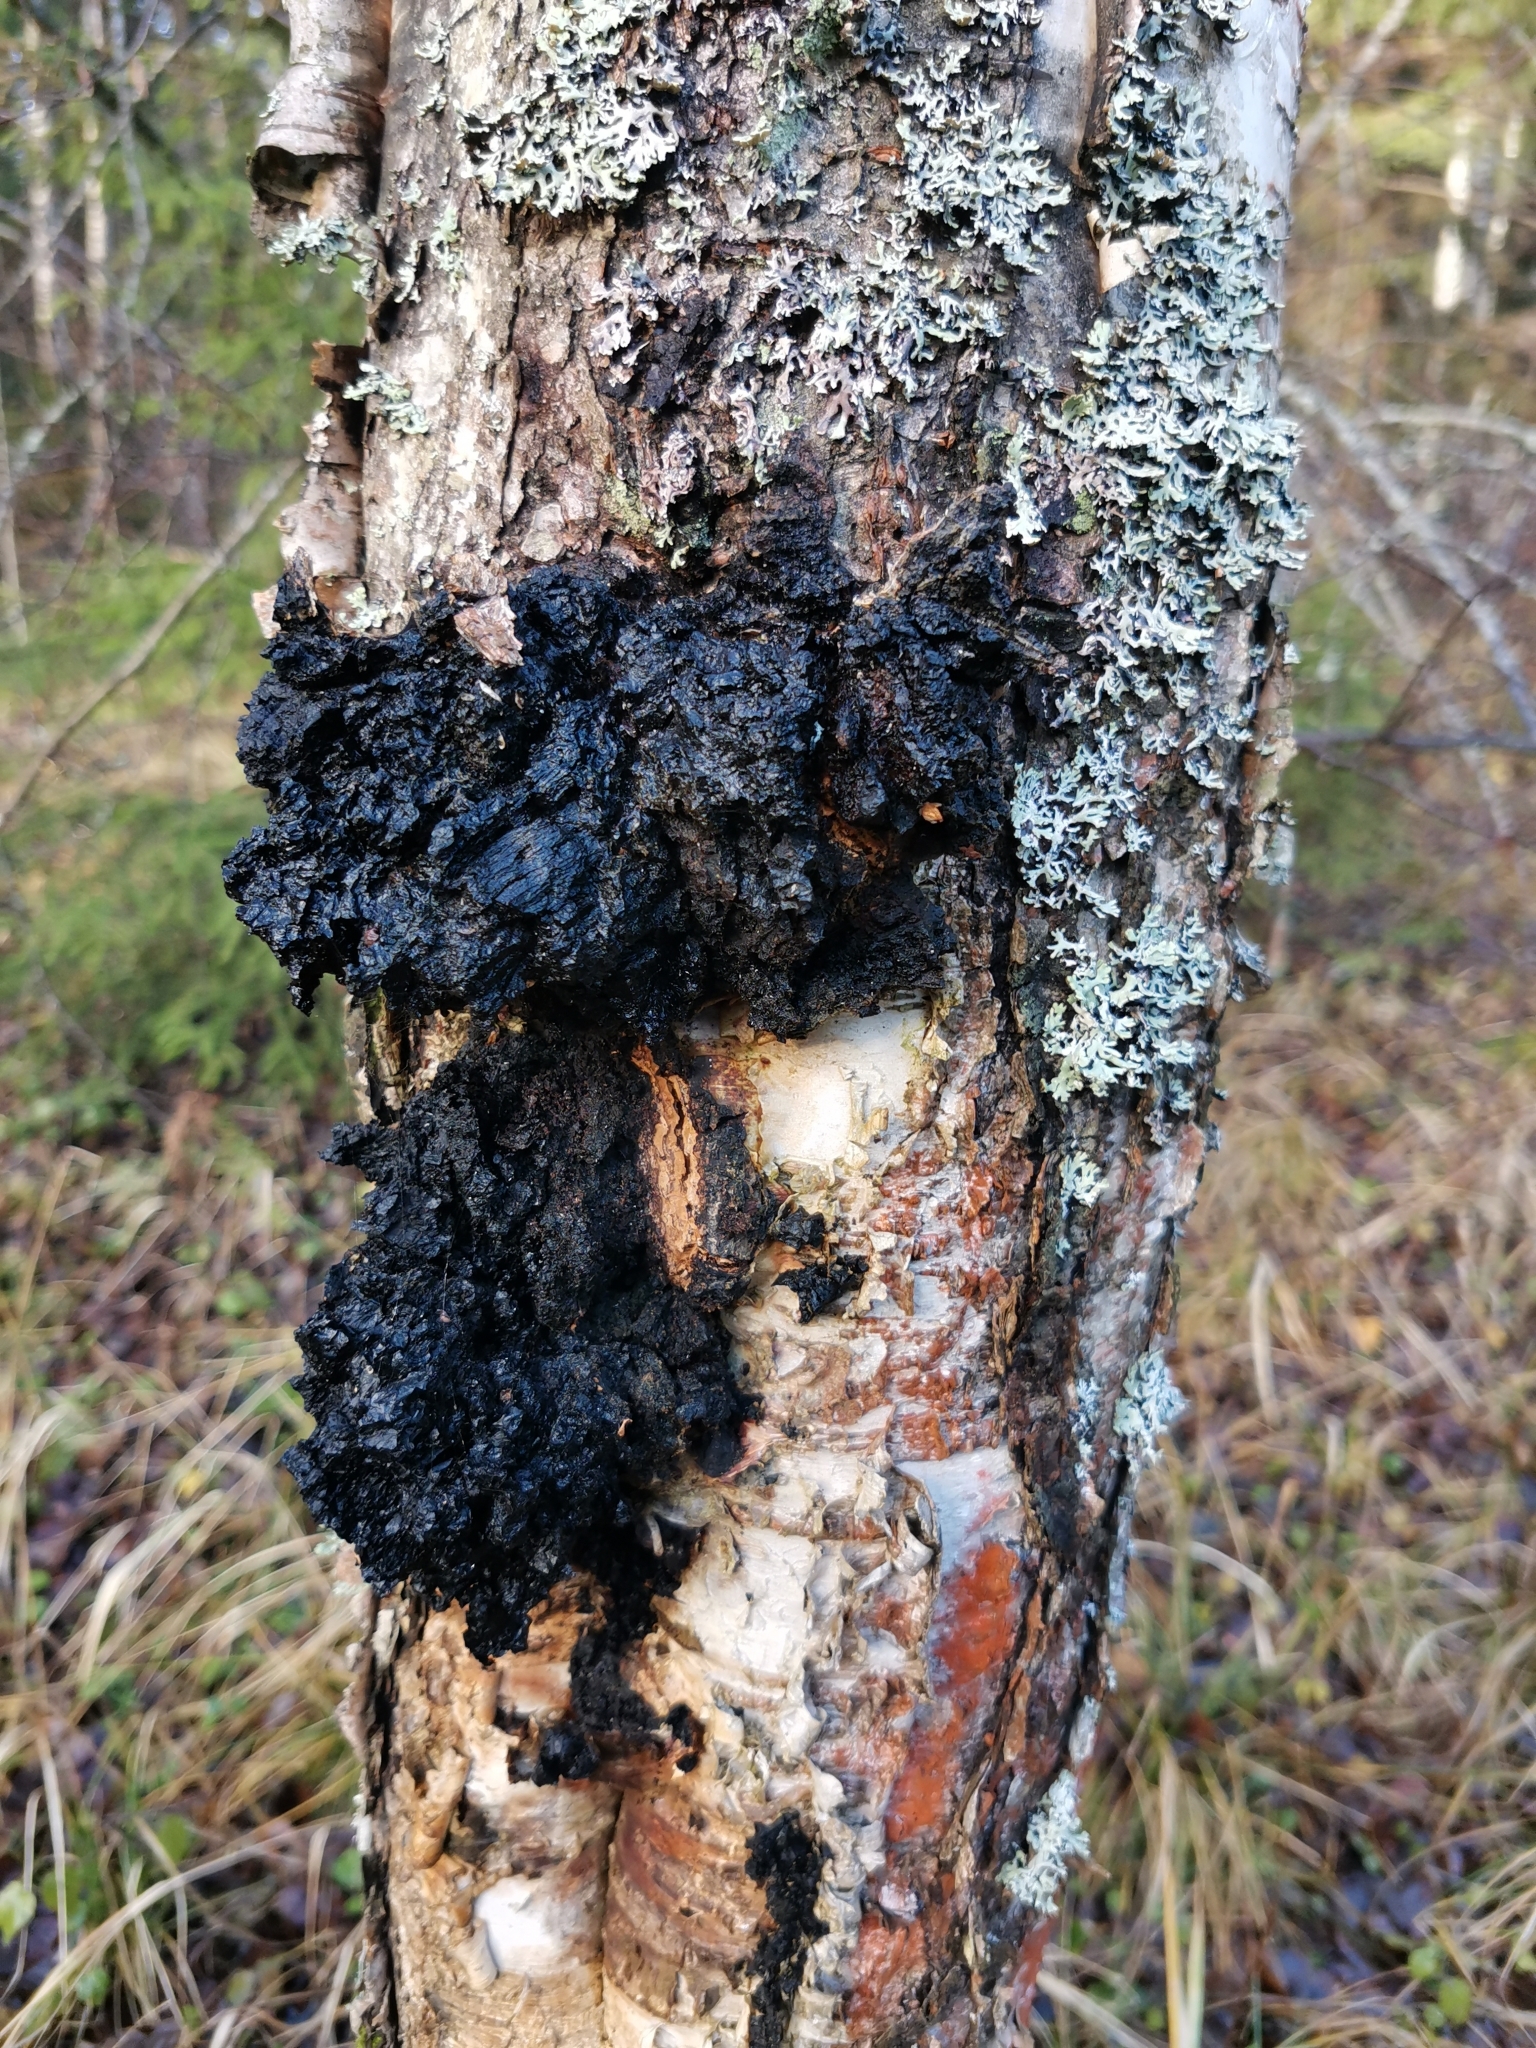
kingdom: Fungi
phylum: Basidiomycota
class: Agaricomycetes
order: Hymenochaetales
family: Hymenochaetaceae
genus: Inonotus
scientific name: Inonotus obliquus
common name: Chaga
